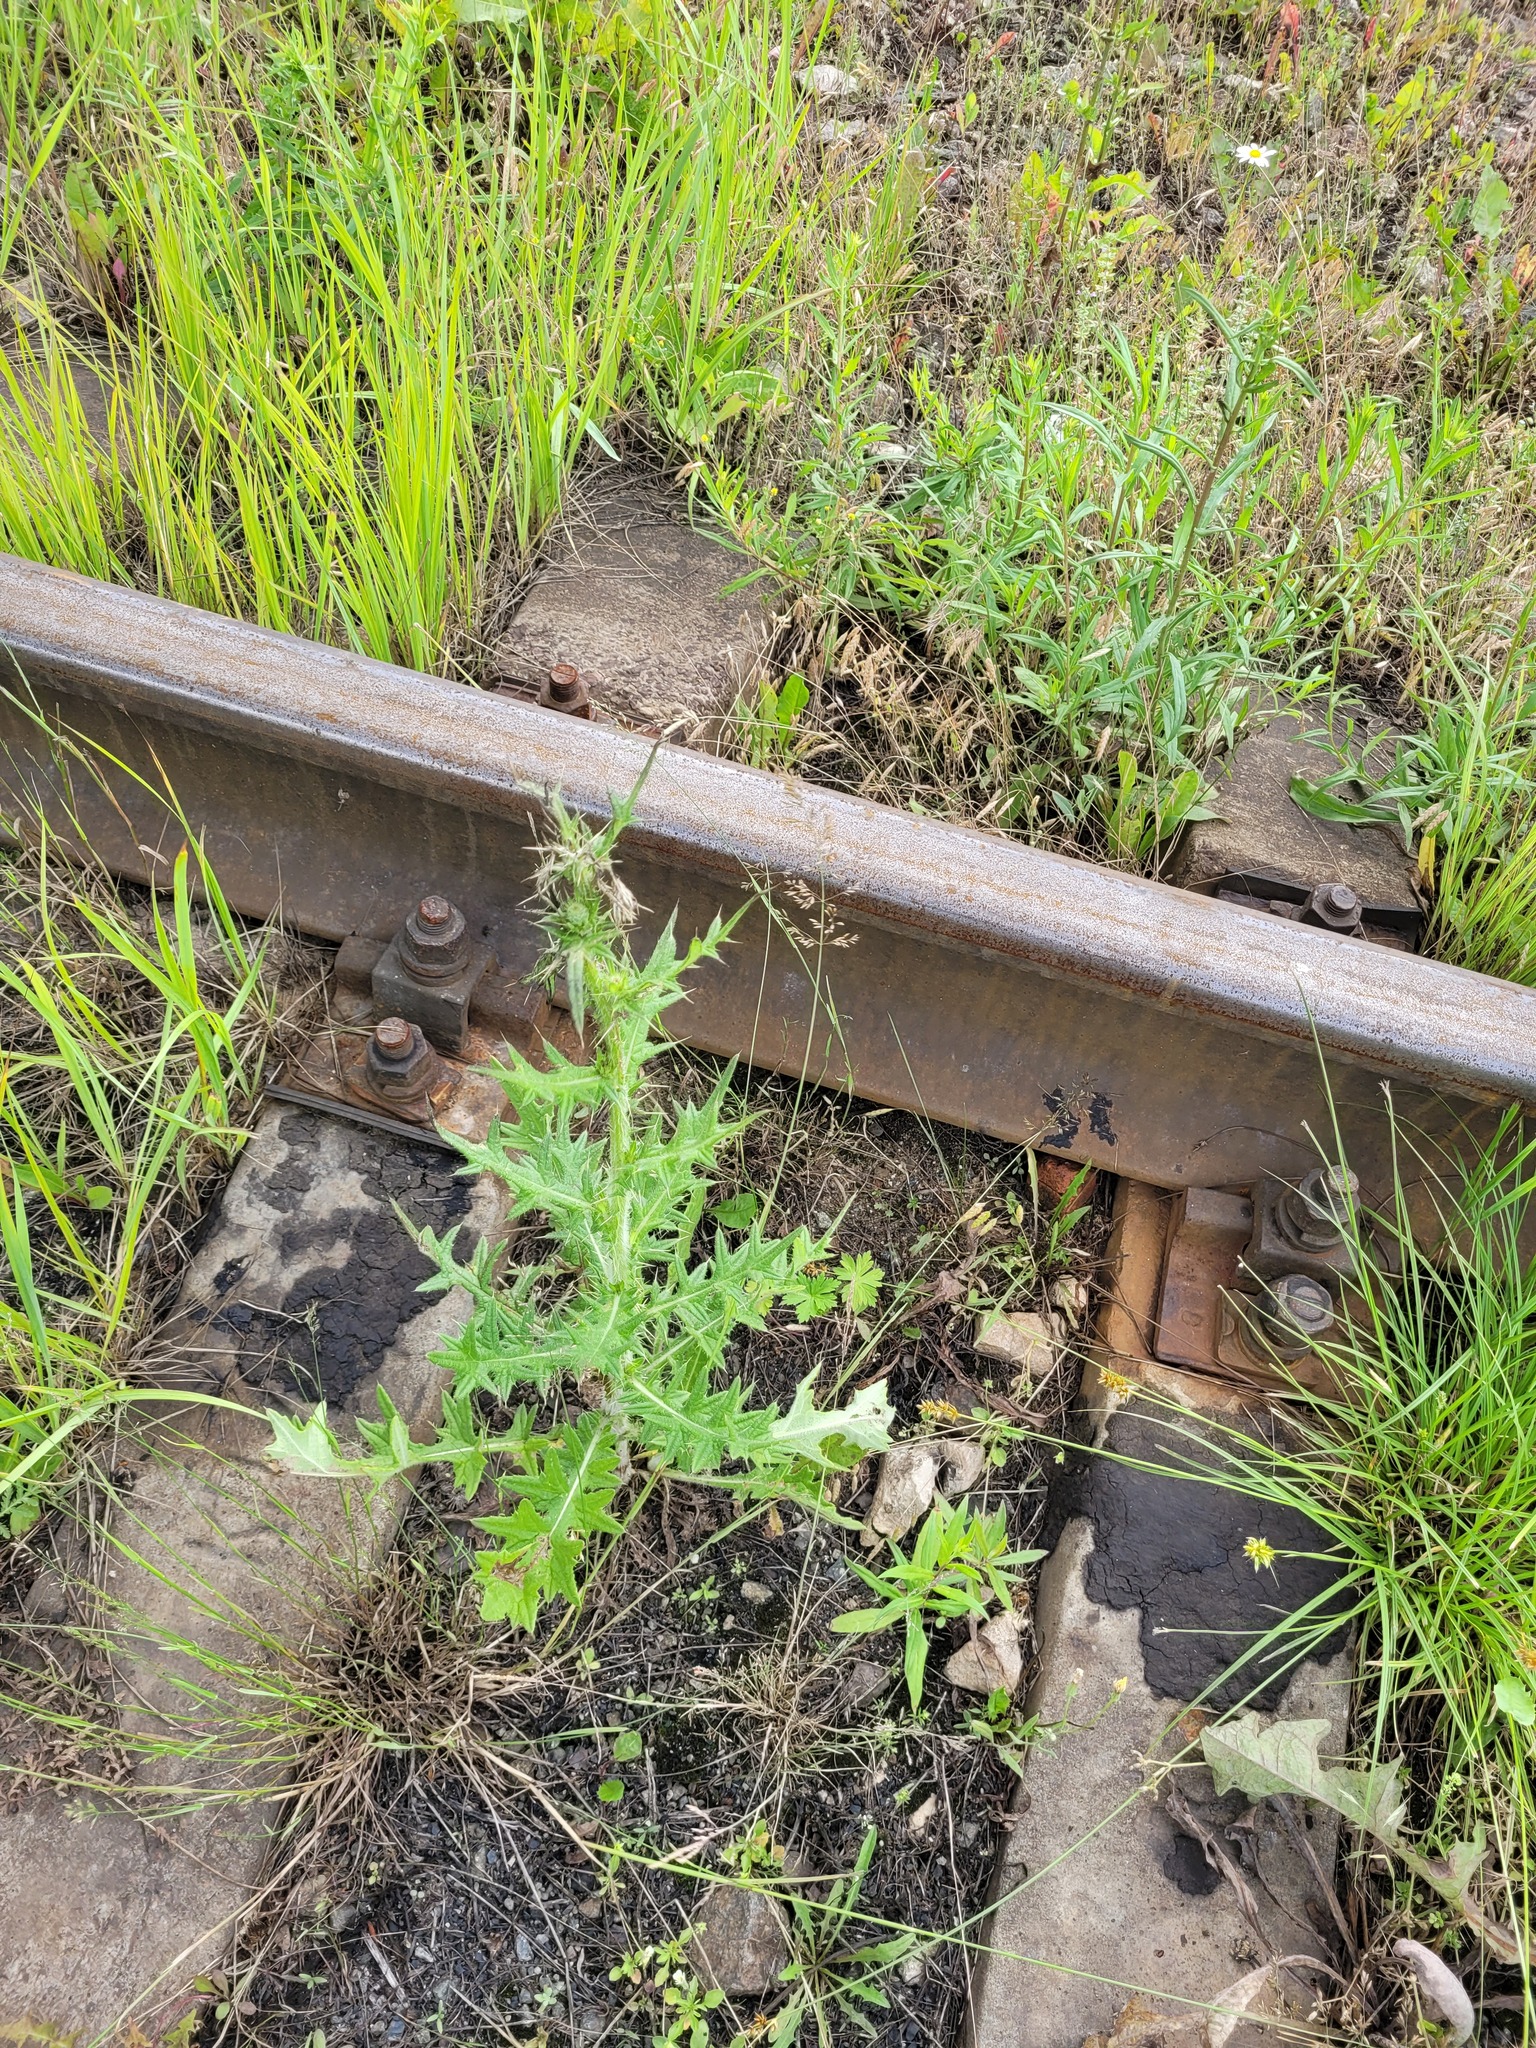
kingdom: Plantae
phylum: Tracheophyta
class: Magnoliopsida
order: Asterales
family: Asteraceae
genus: Cirsium
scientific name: Cirsium vulgare
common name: Bull thistle
